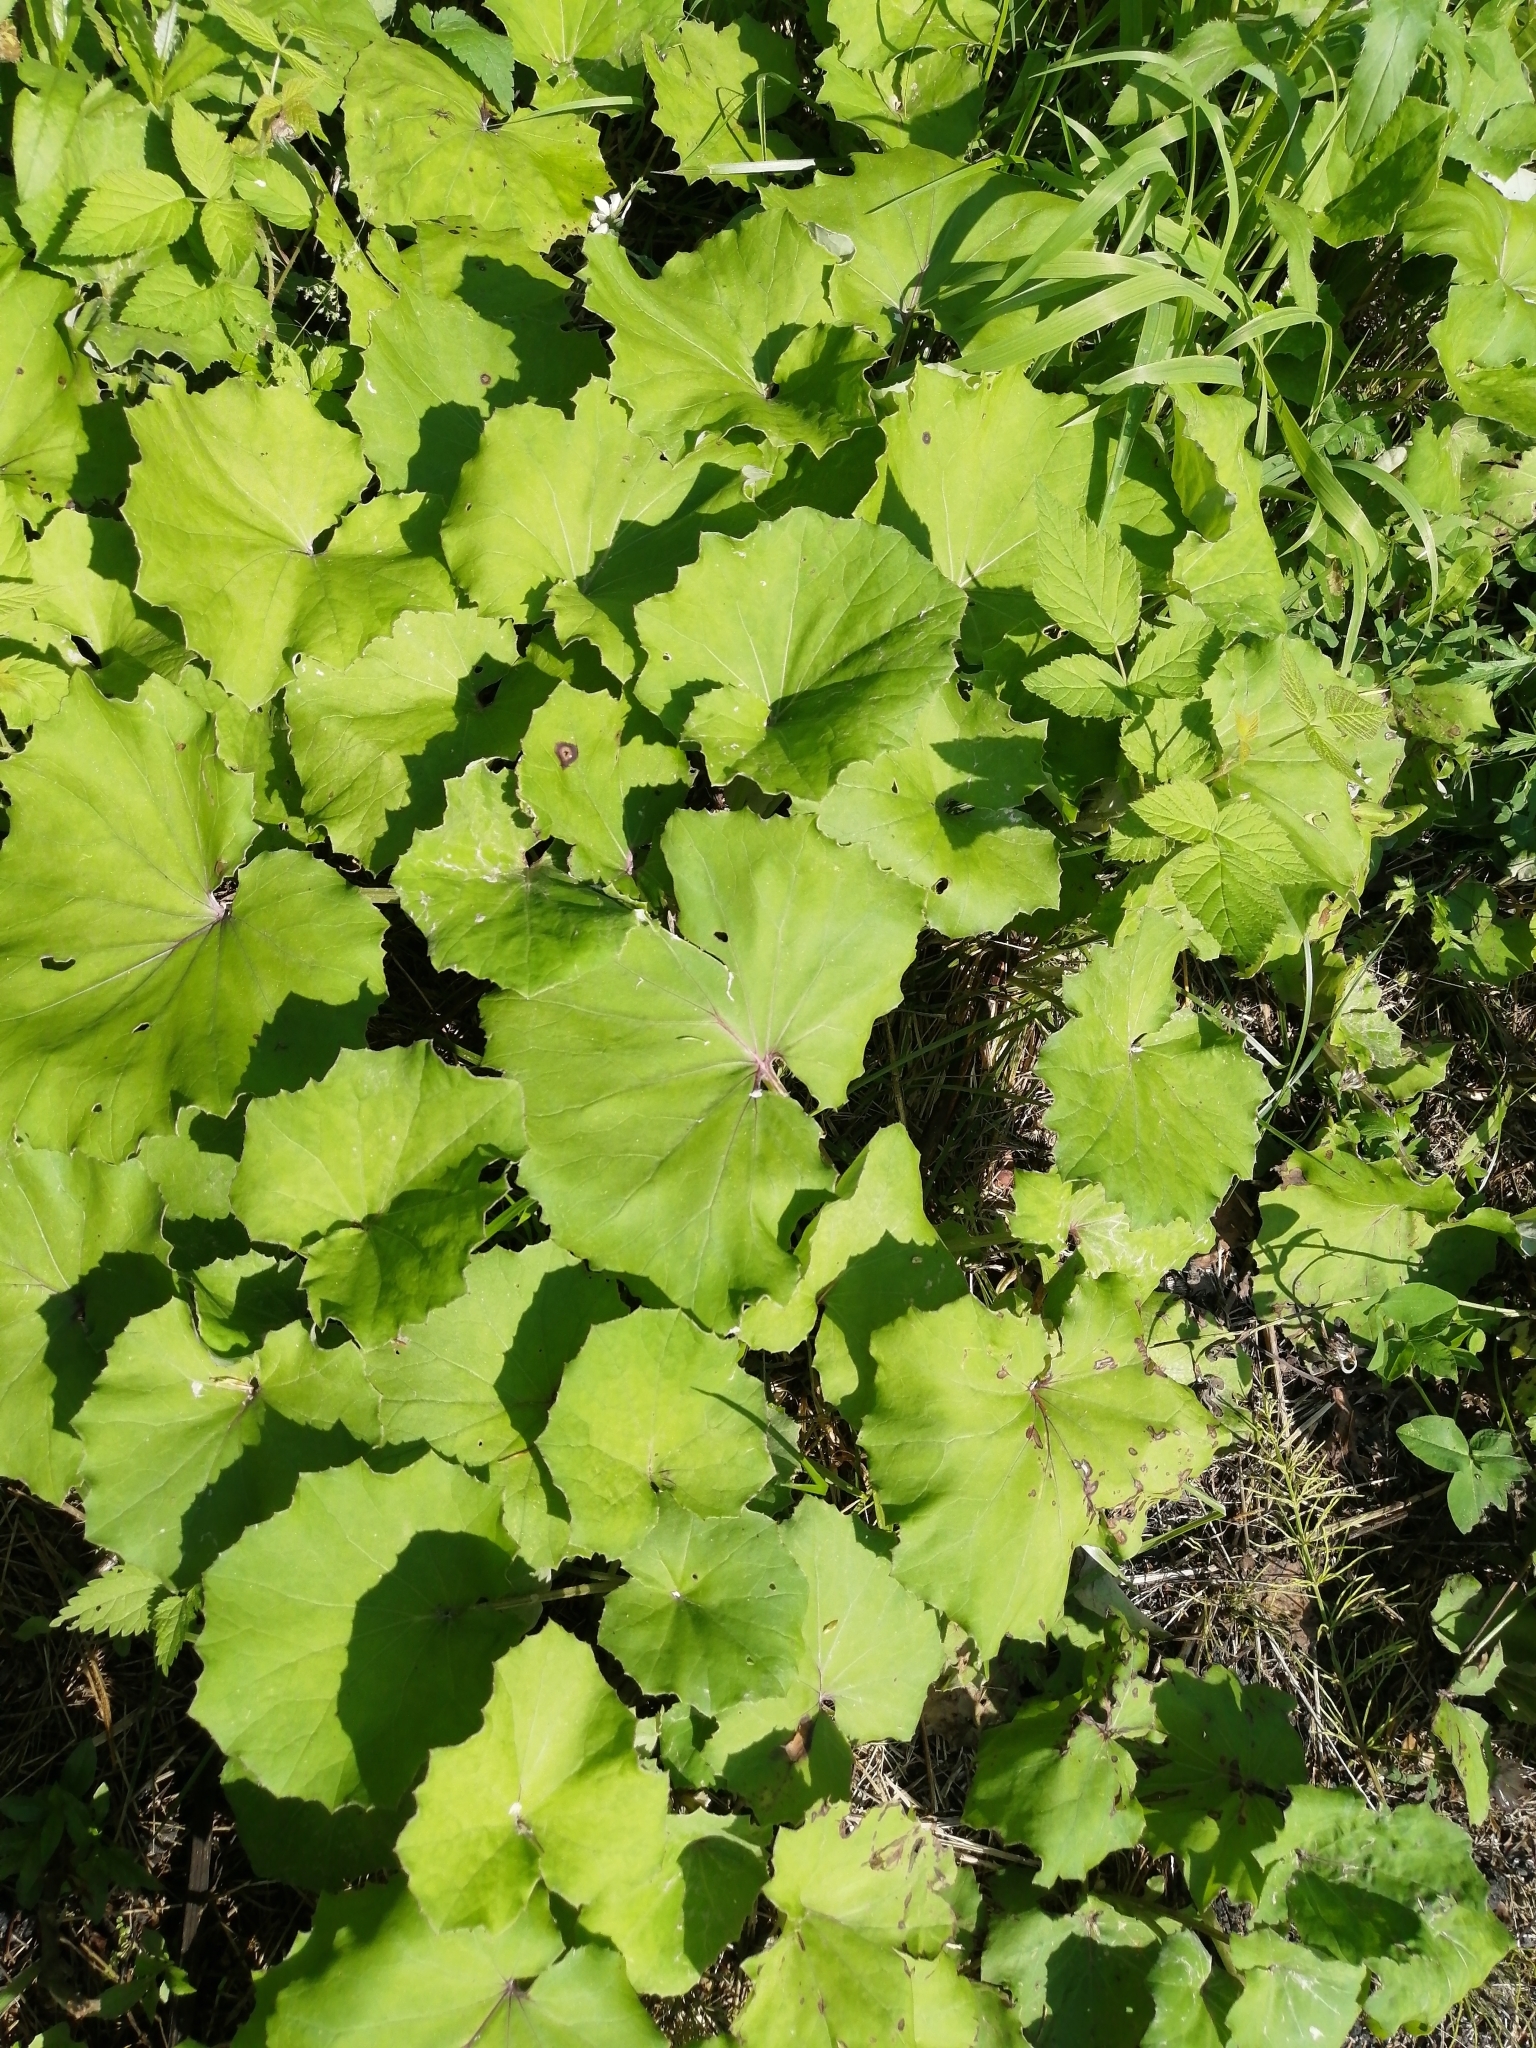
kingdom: Plantae
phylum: Tracheophyta
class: Magnoliopsida
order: Asterales
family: Asteraceae
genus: Tussilago
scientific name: Tussilago farfara
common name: Coltsfoot
